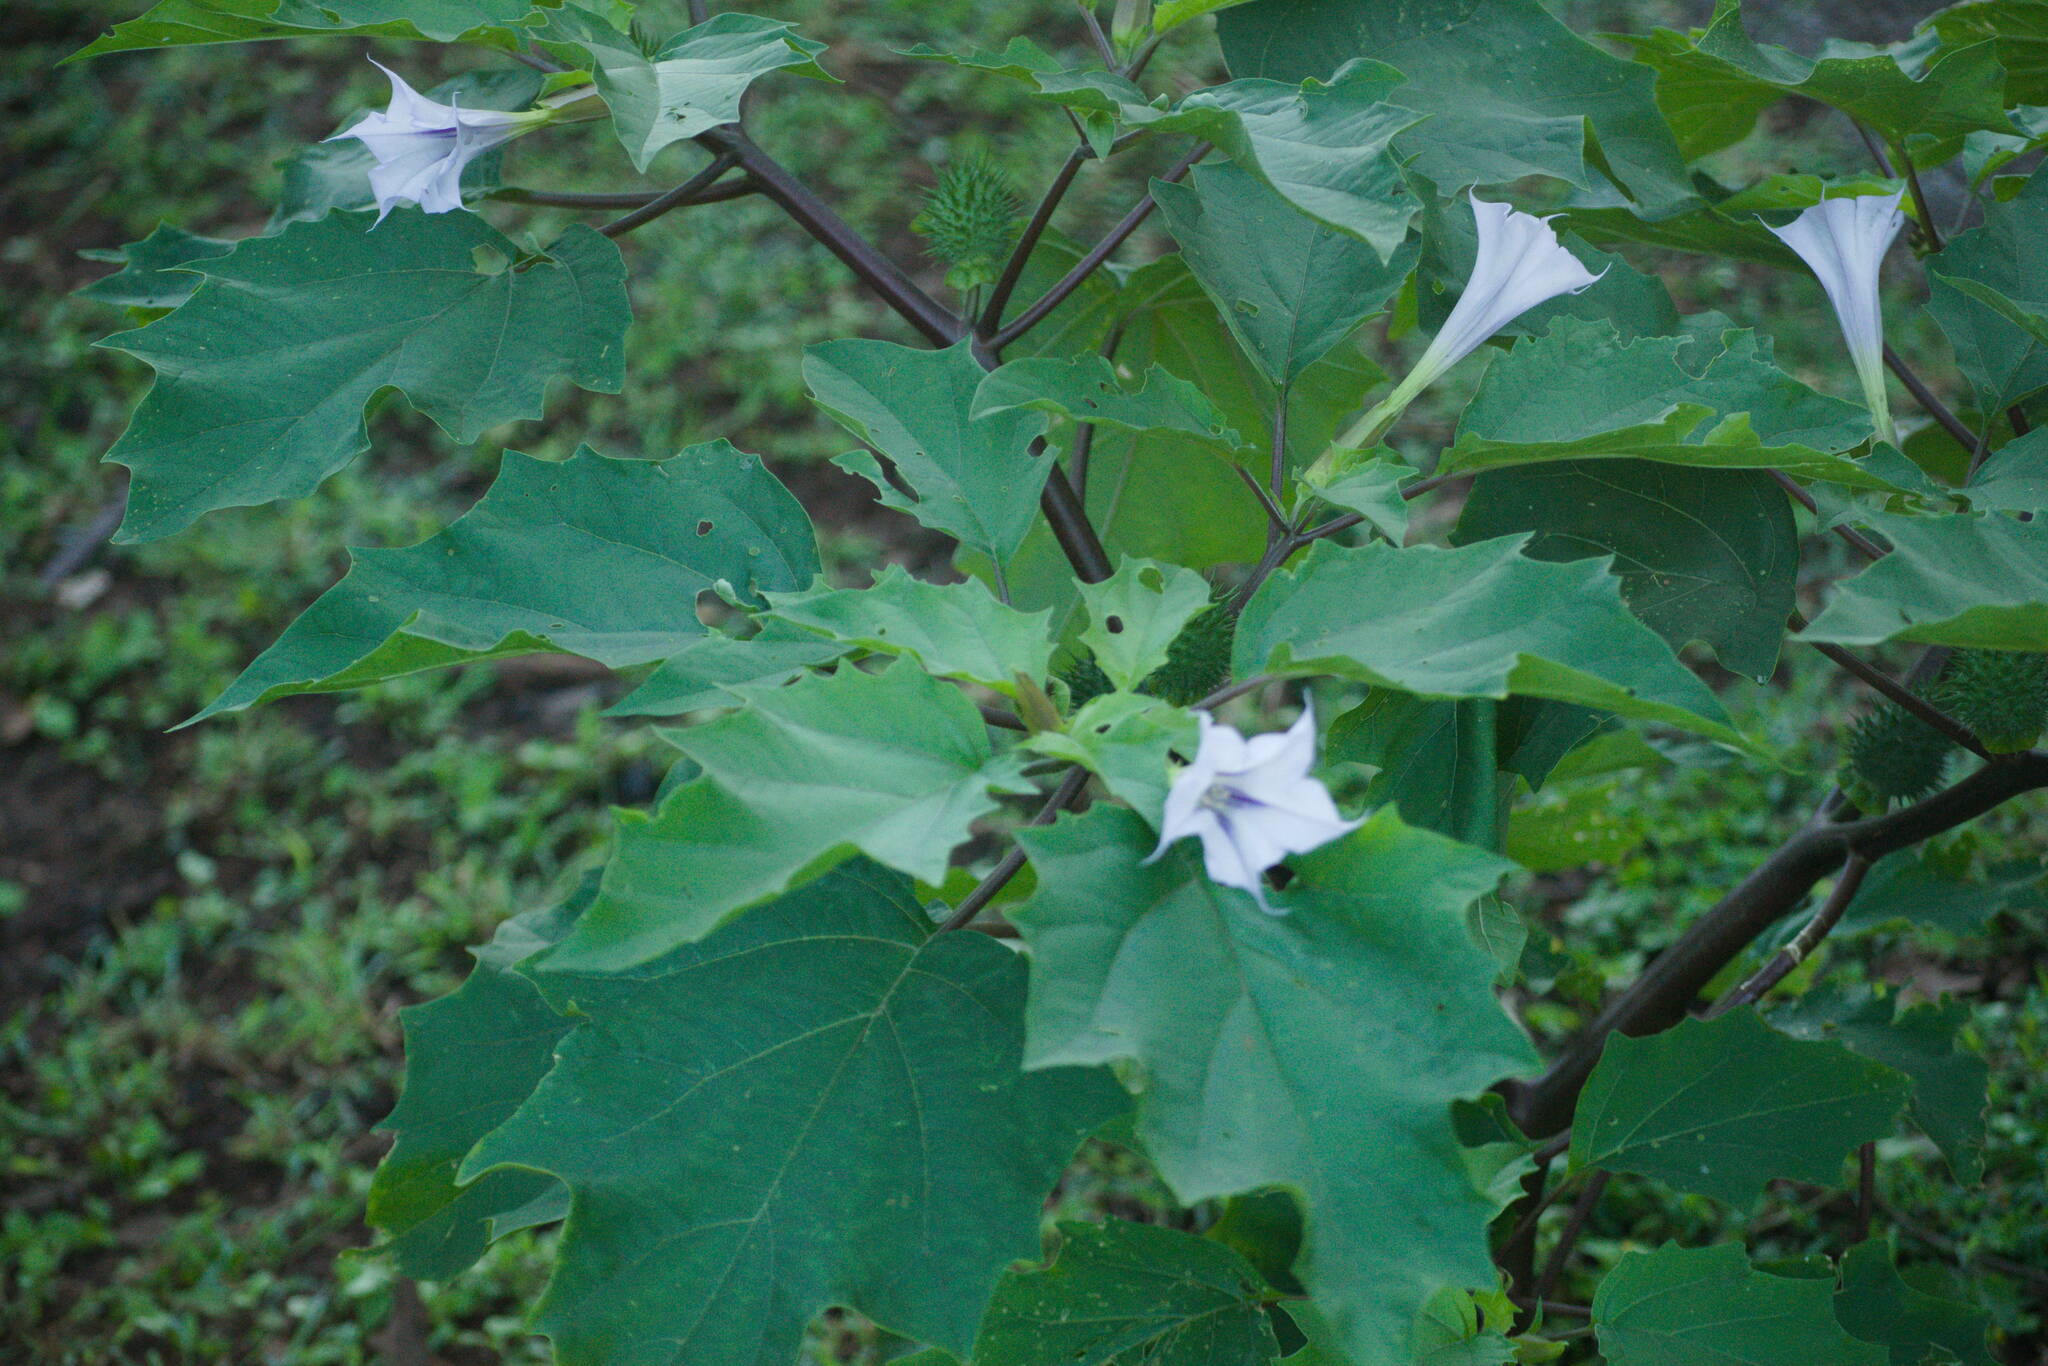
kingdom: Plantae
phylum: Tracheophyta
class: Magnoliopsida
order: Solanales
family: Solanaceae
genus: Datura
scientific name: Datura stramonium
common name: Thorn-apple
